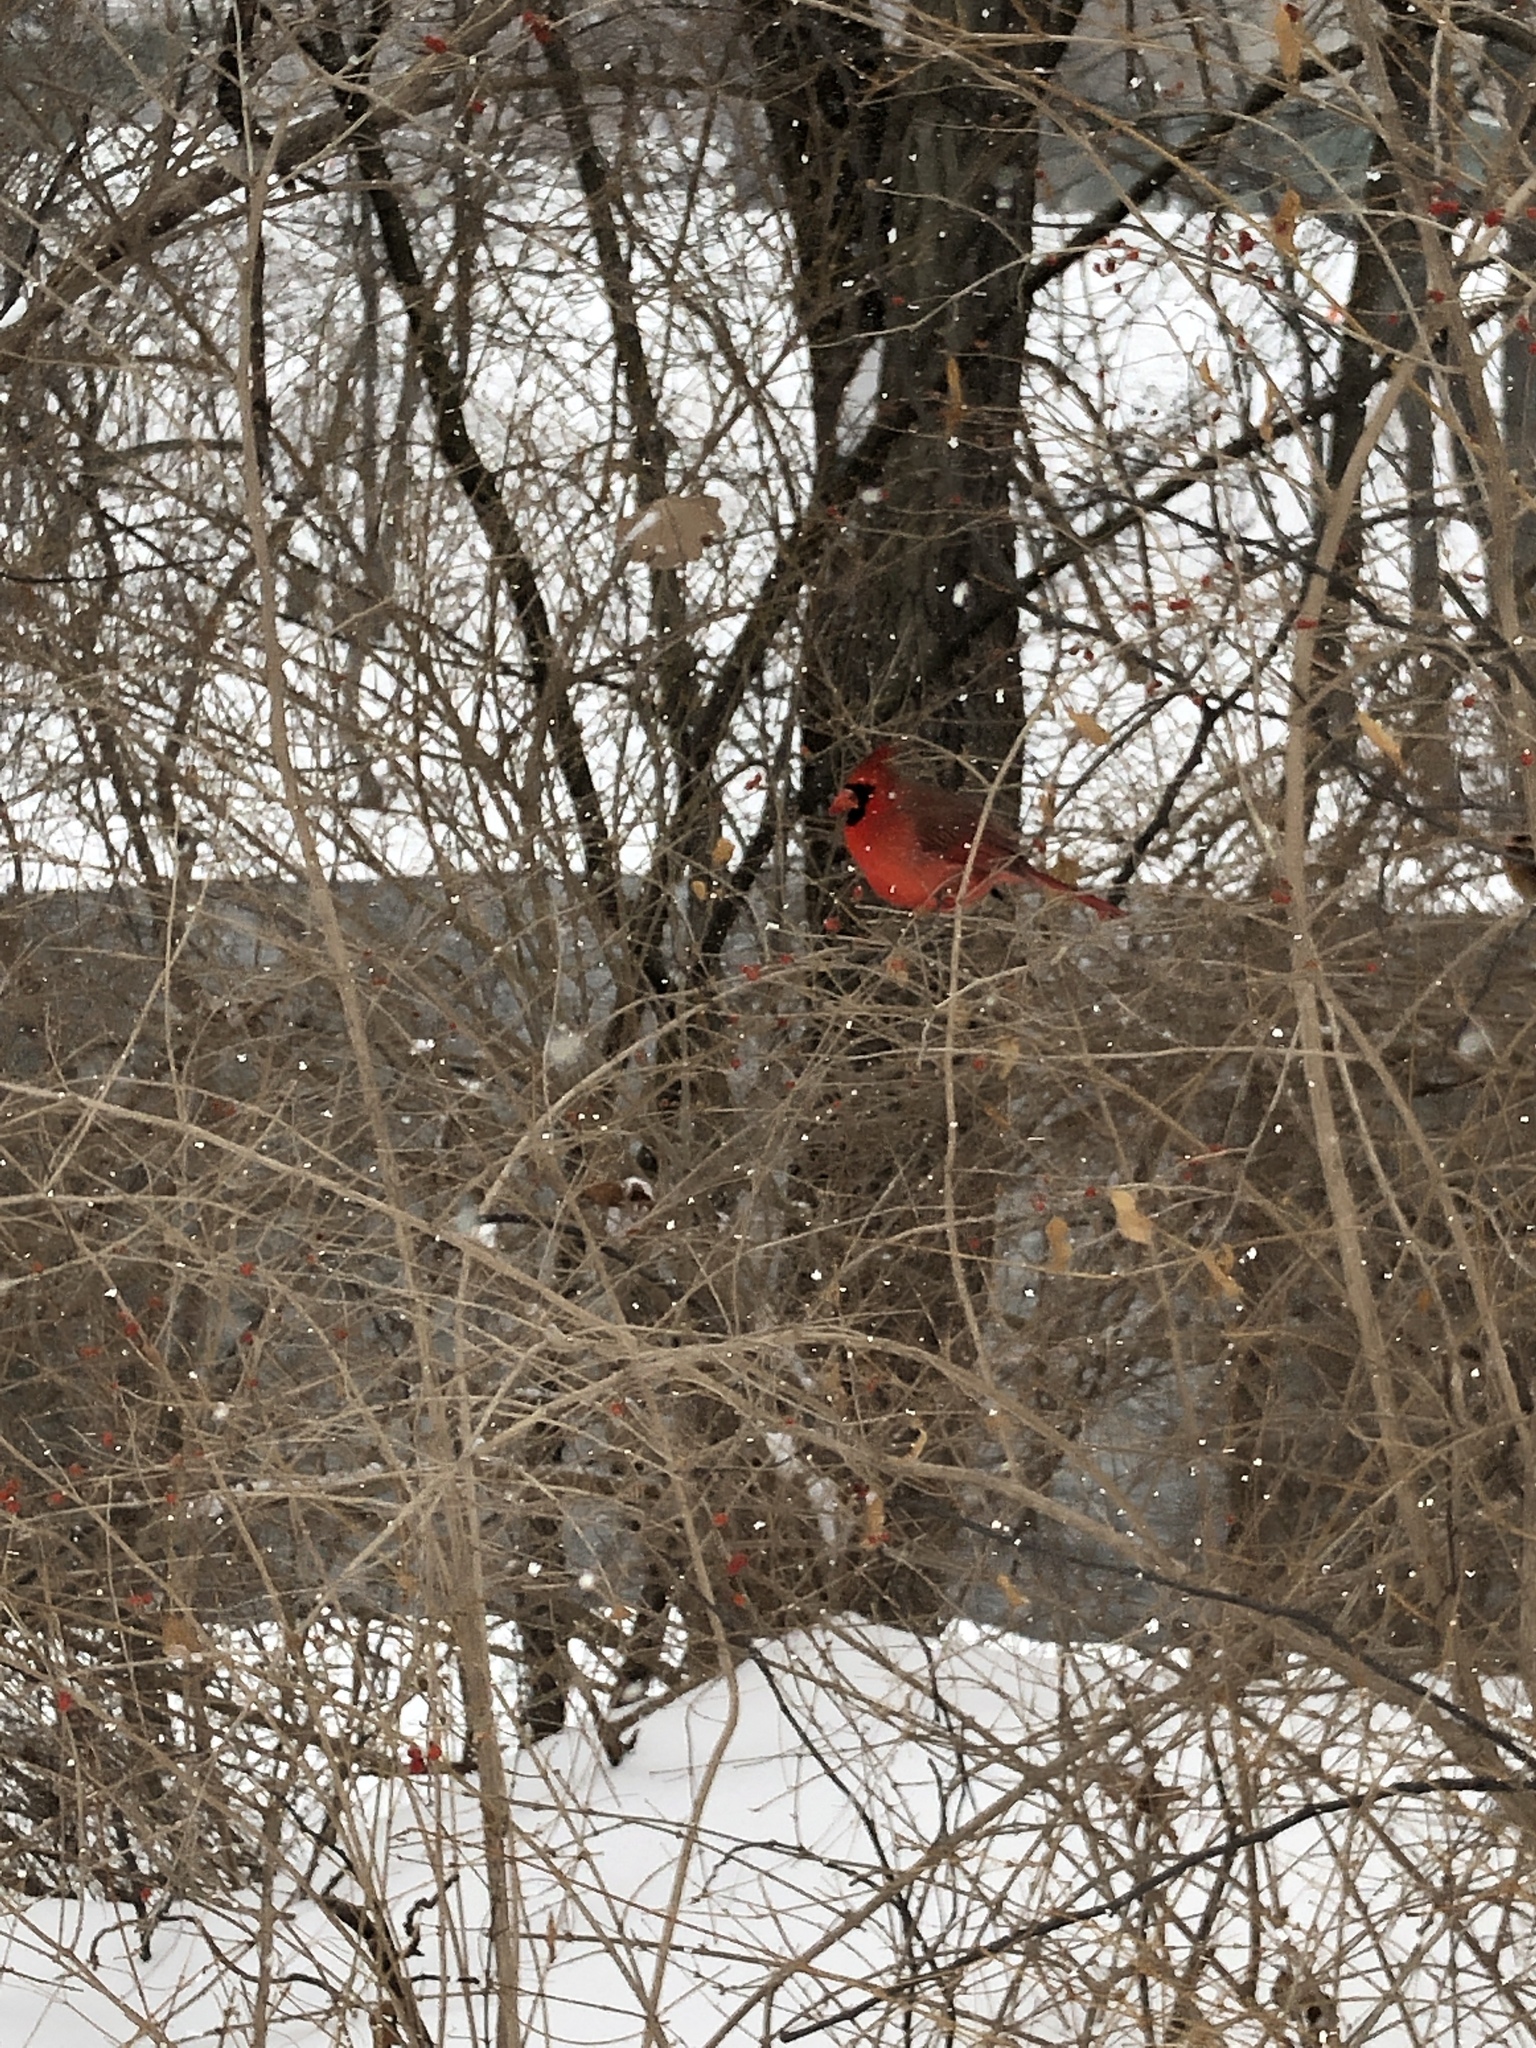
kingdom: Animalia
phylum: Chordata
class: Aves
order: Passeriformes
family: Cardinalidae
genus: Cardinalis
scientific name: Cardinalis cardinalis
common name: Northern cardinal
